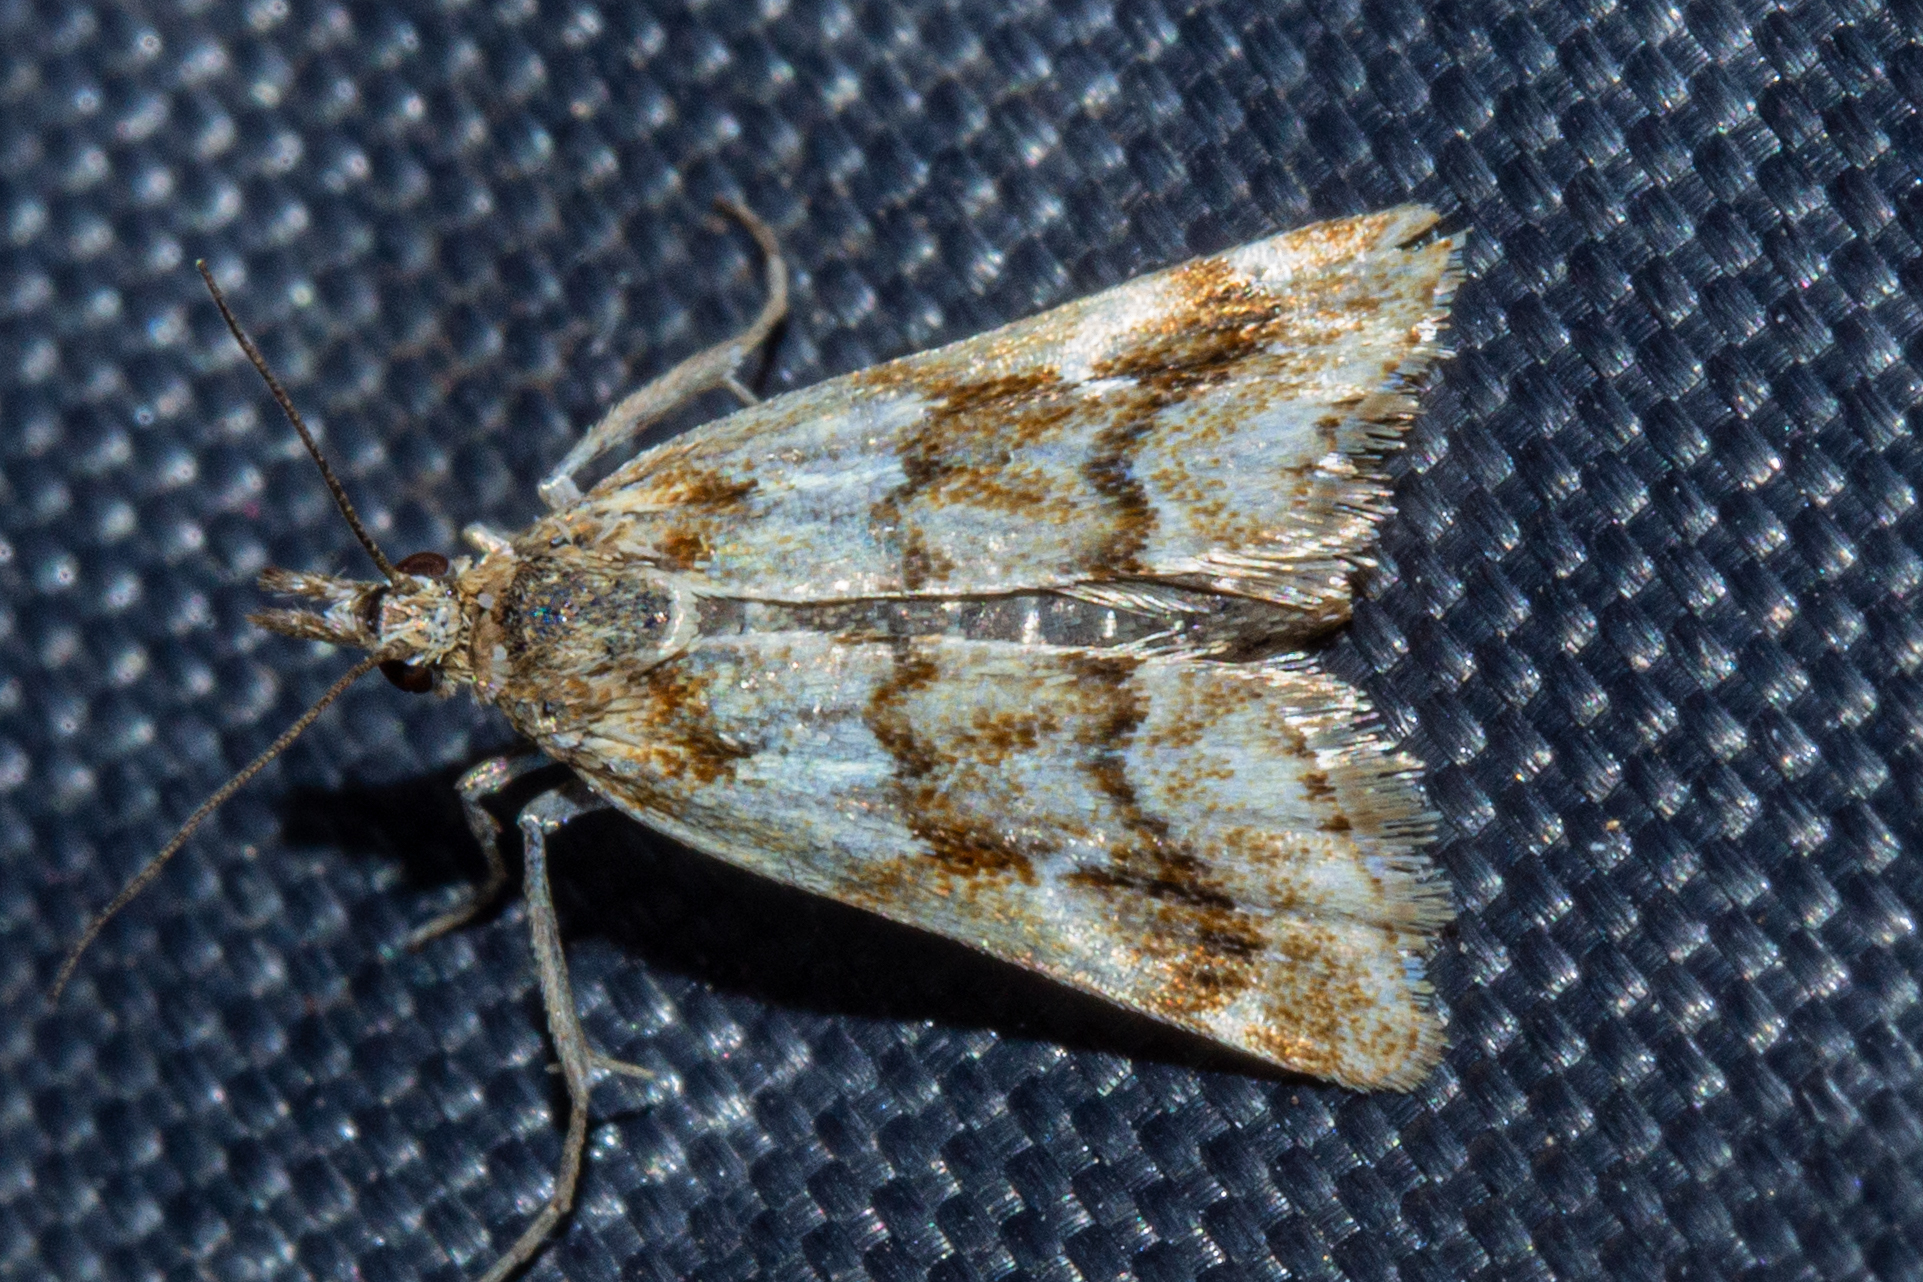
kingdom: Animalia
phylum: Arthropoda
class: Insecta
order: Lepidoptera
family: Crambidae
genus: Glaucocharis
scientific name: Glaucocharis helioctypa
